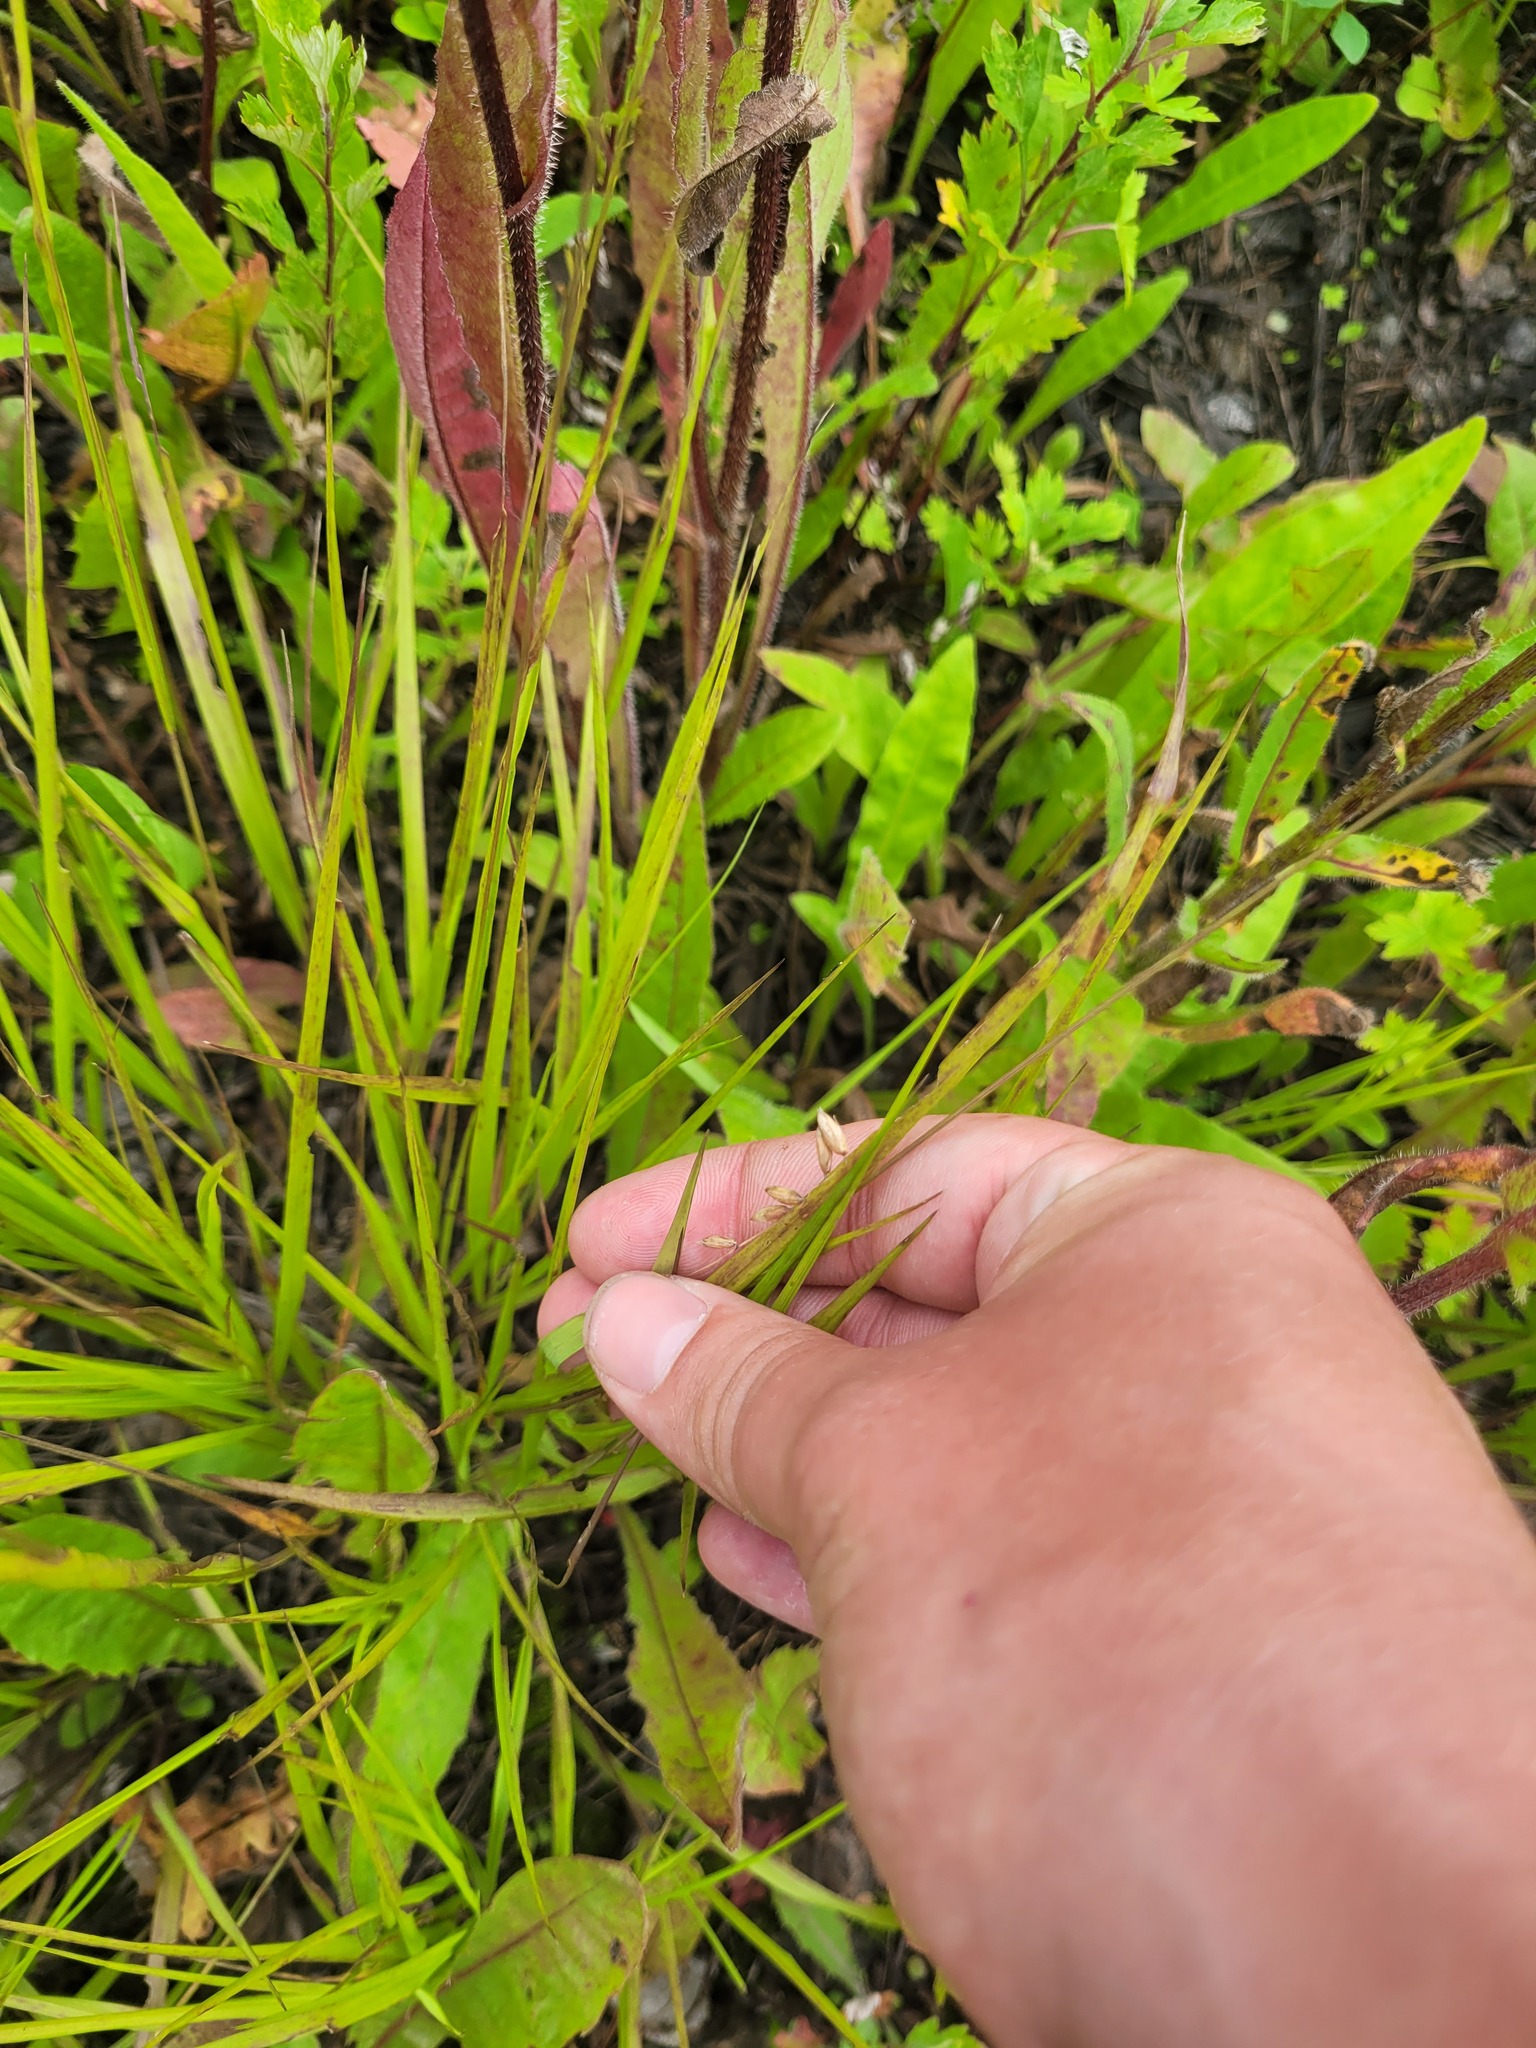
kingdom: Plantae
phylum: Tracheophyta
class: Liliopsida
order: Poales
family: Poaceae
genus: Melica
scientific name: Melica nutans
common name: Mountain melick
